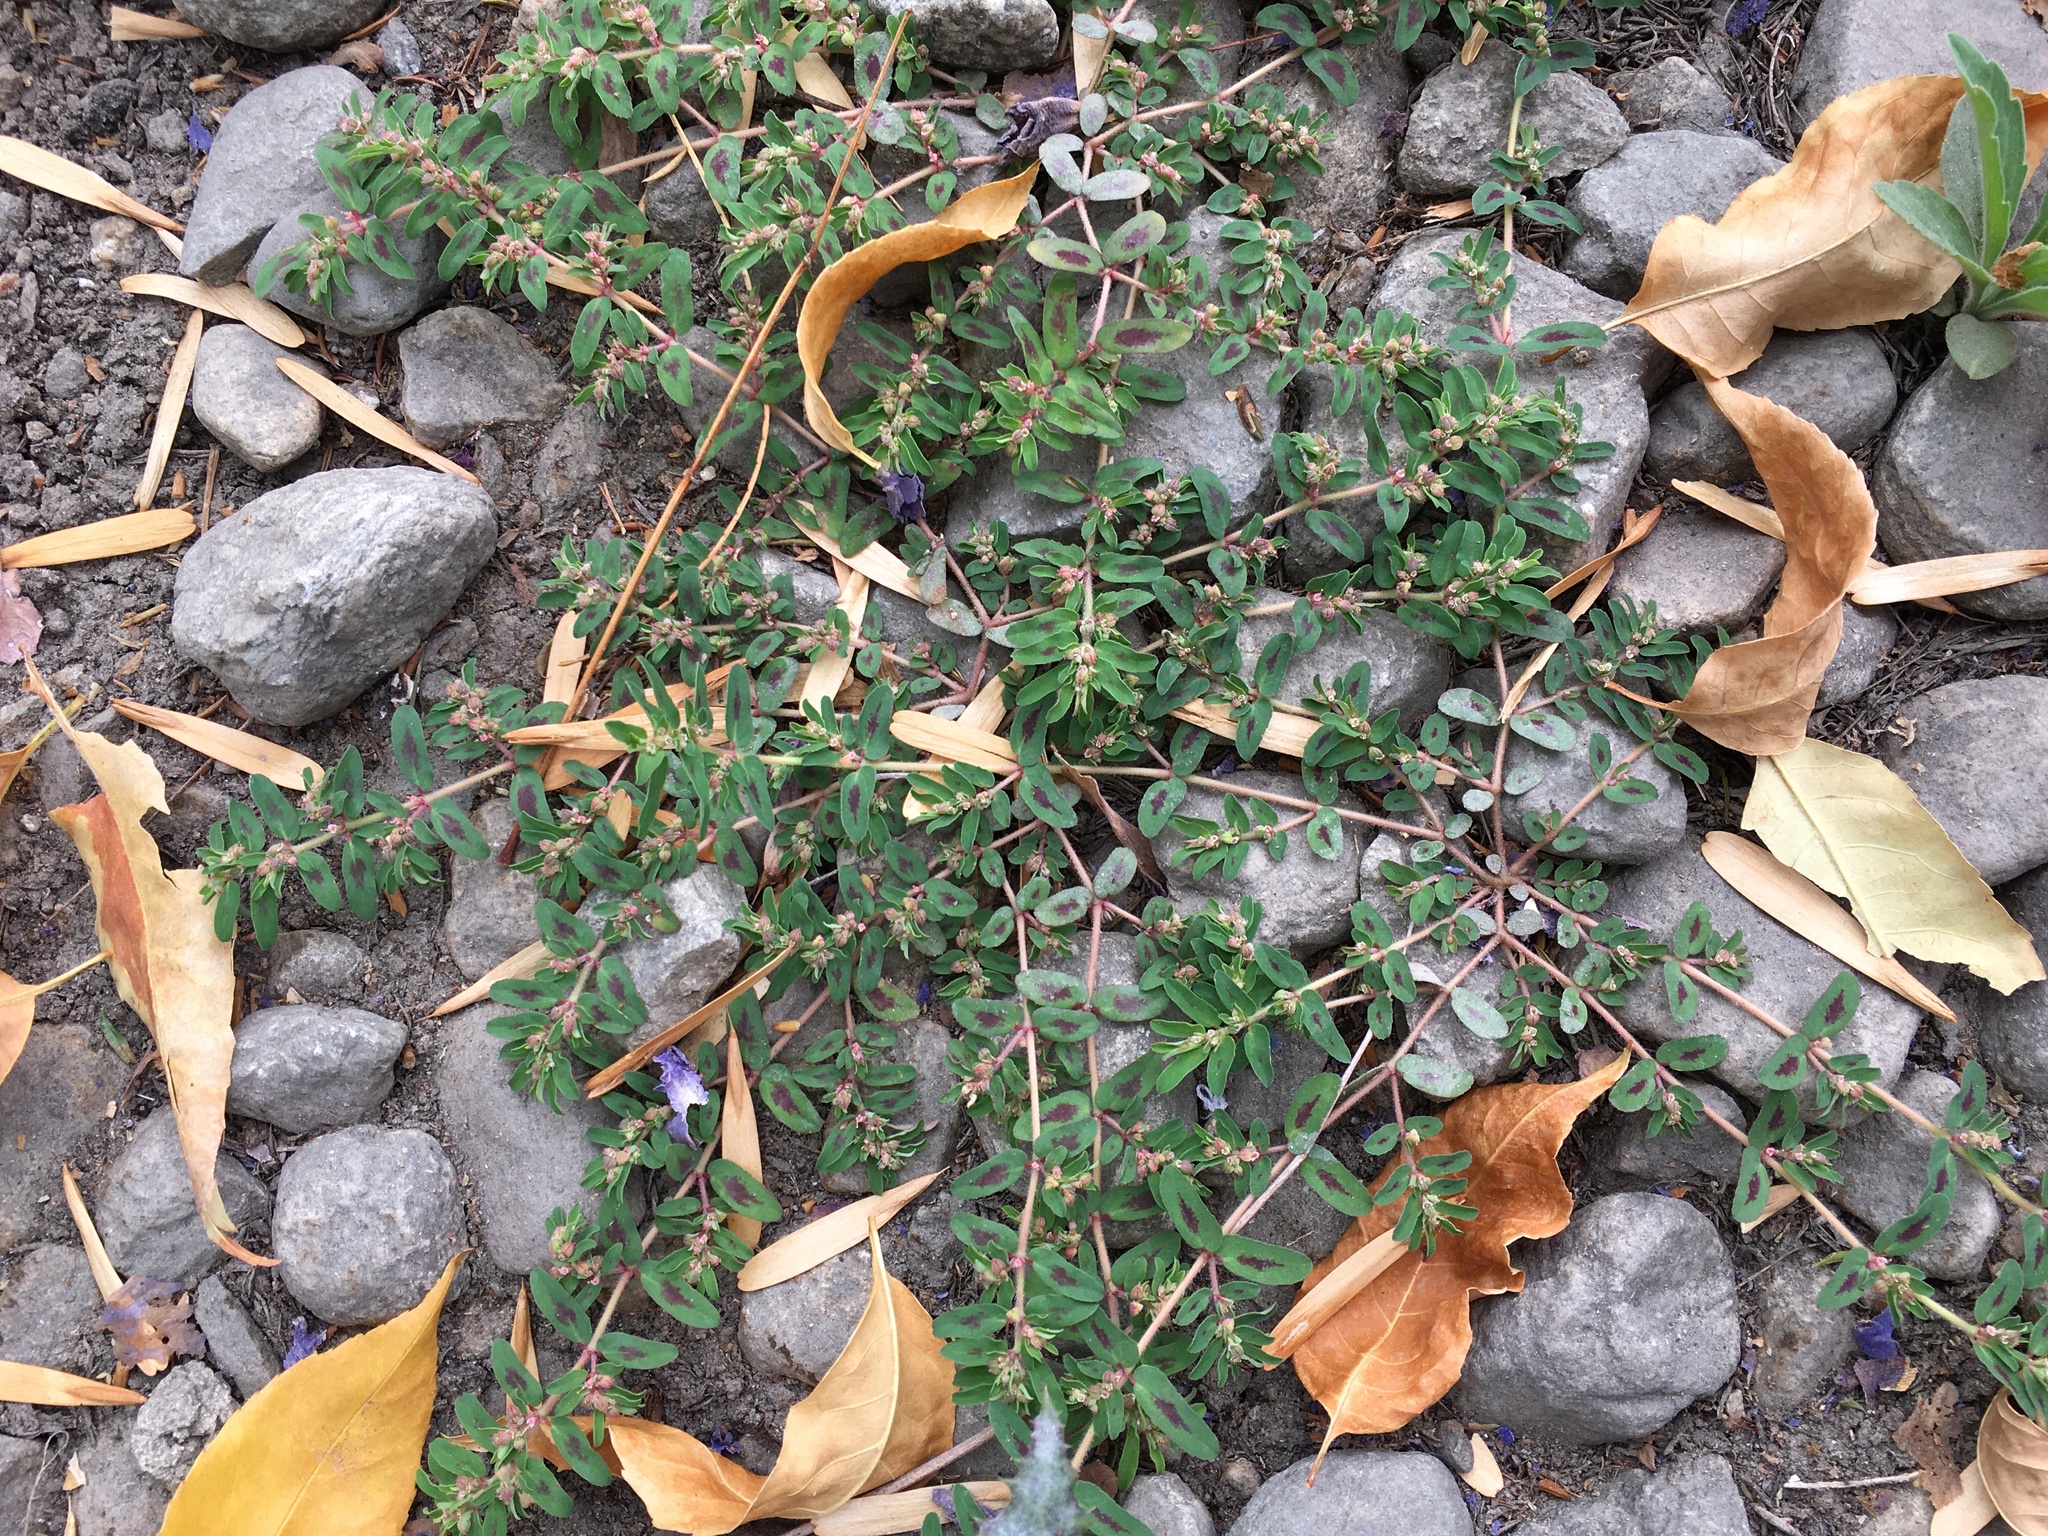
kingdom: Plantae
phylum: Tracheophyta
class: Magnoliopsida
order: Malpighiales
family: Euphorbiaceae
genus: Euphorbia
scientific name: Euphorbia maculata
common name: Spotted spurge
